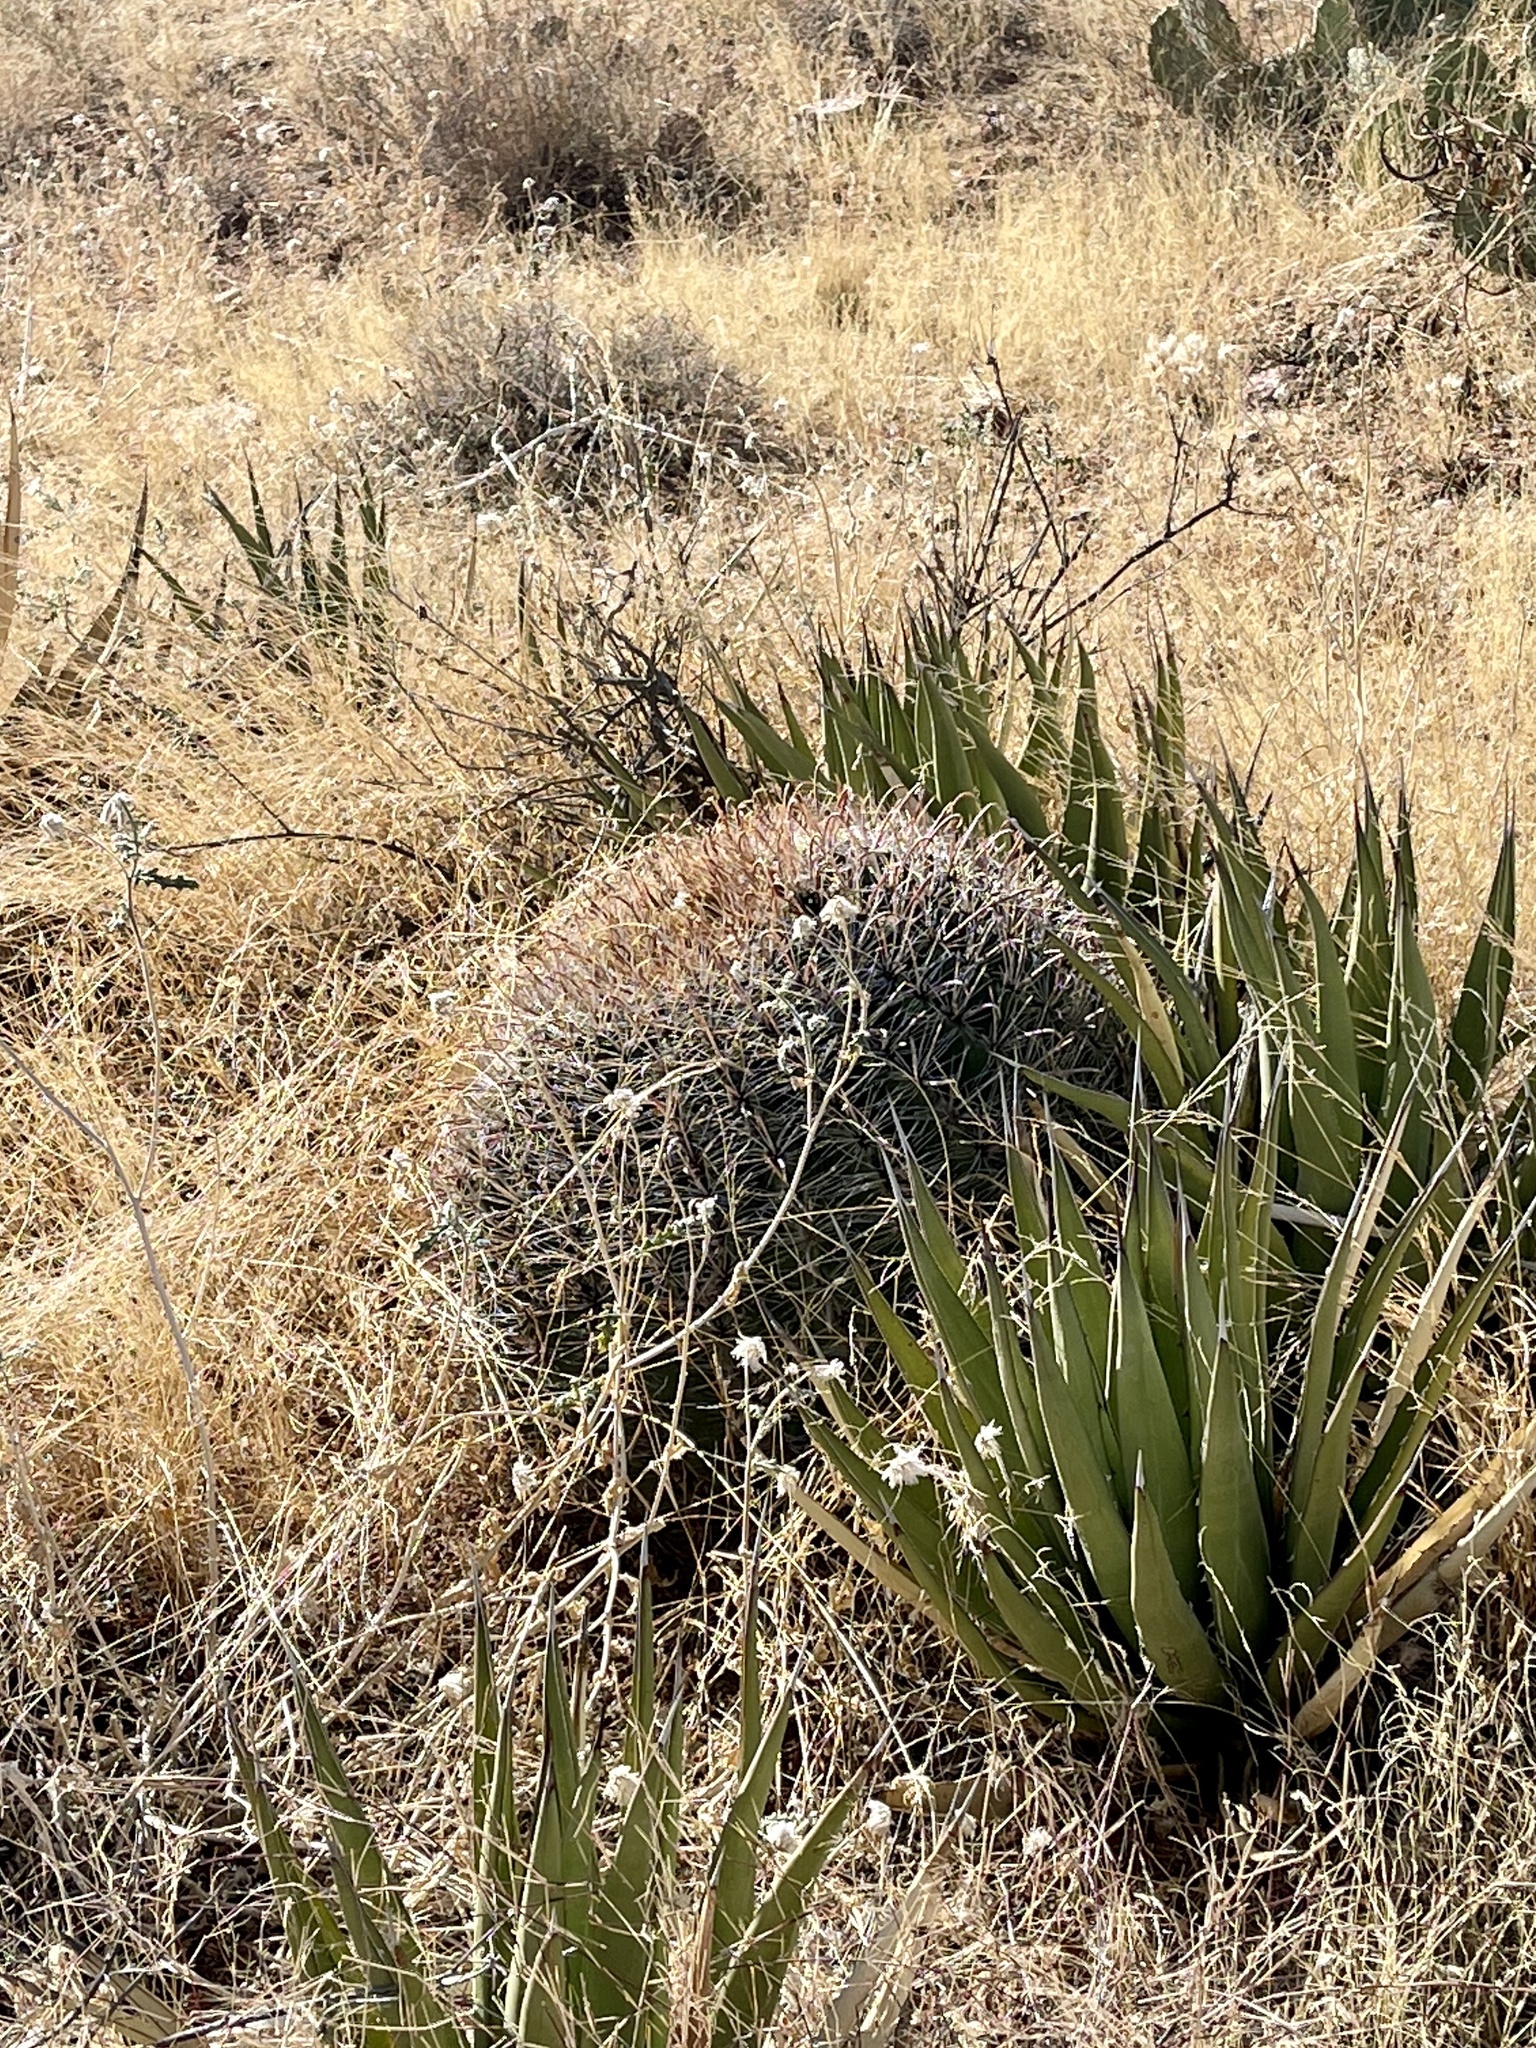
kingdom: Plantae
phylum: Tracheophyta
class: Magnoliopsida
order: Caryophyllales
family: Cactaceae
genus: Ferocactus
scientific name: Ferocactus wislizeni
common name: Candy barrel cactus
